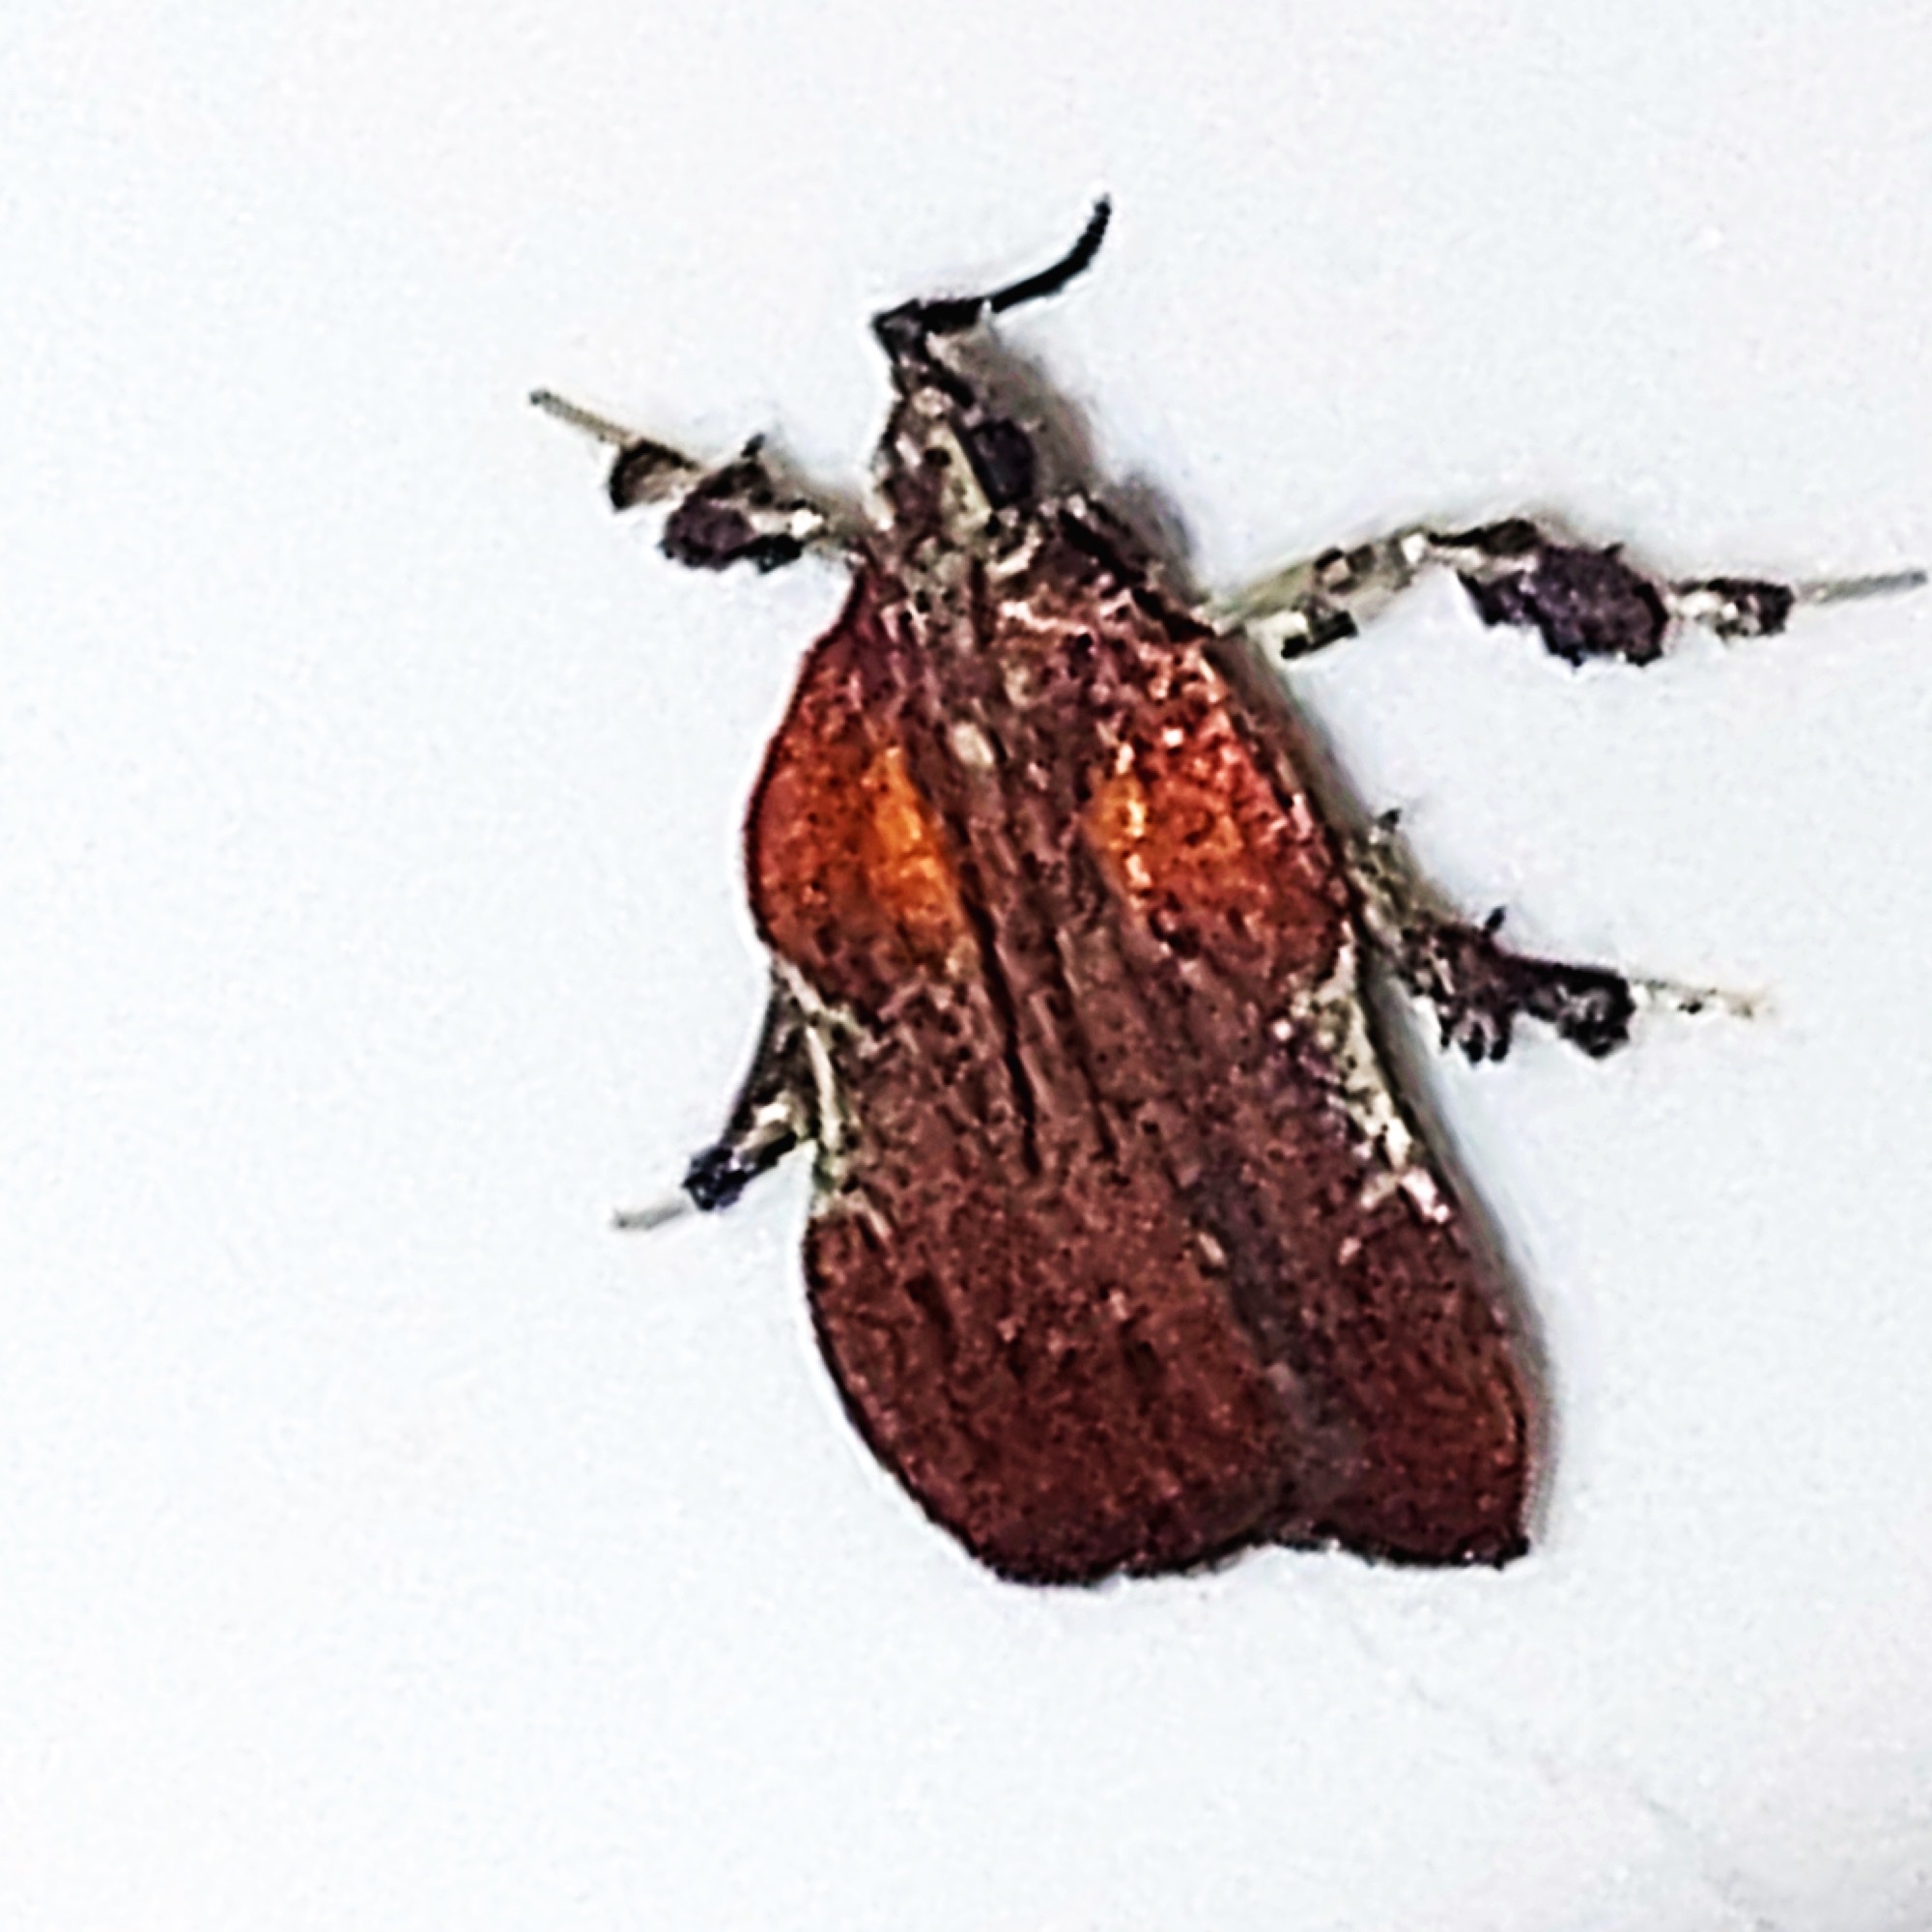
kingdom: Animalia
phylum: Arthropoda
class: Insecta
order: Lepidoptera
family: Pyralidae
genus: Galasa
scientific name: Galasa nigrinodis
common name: Boxwood leaftier moth
